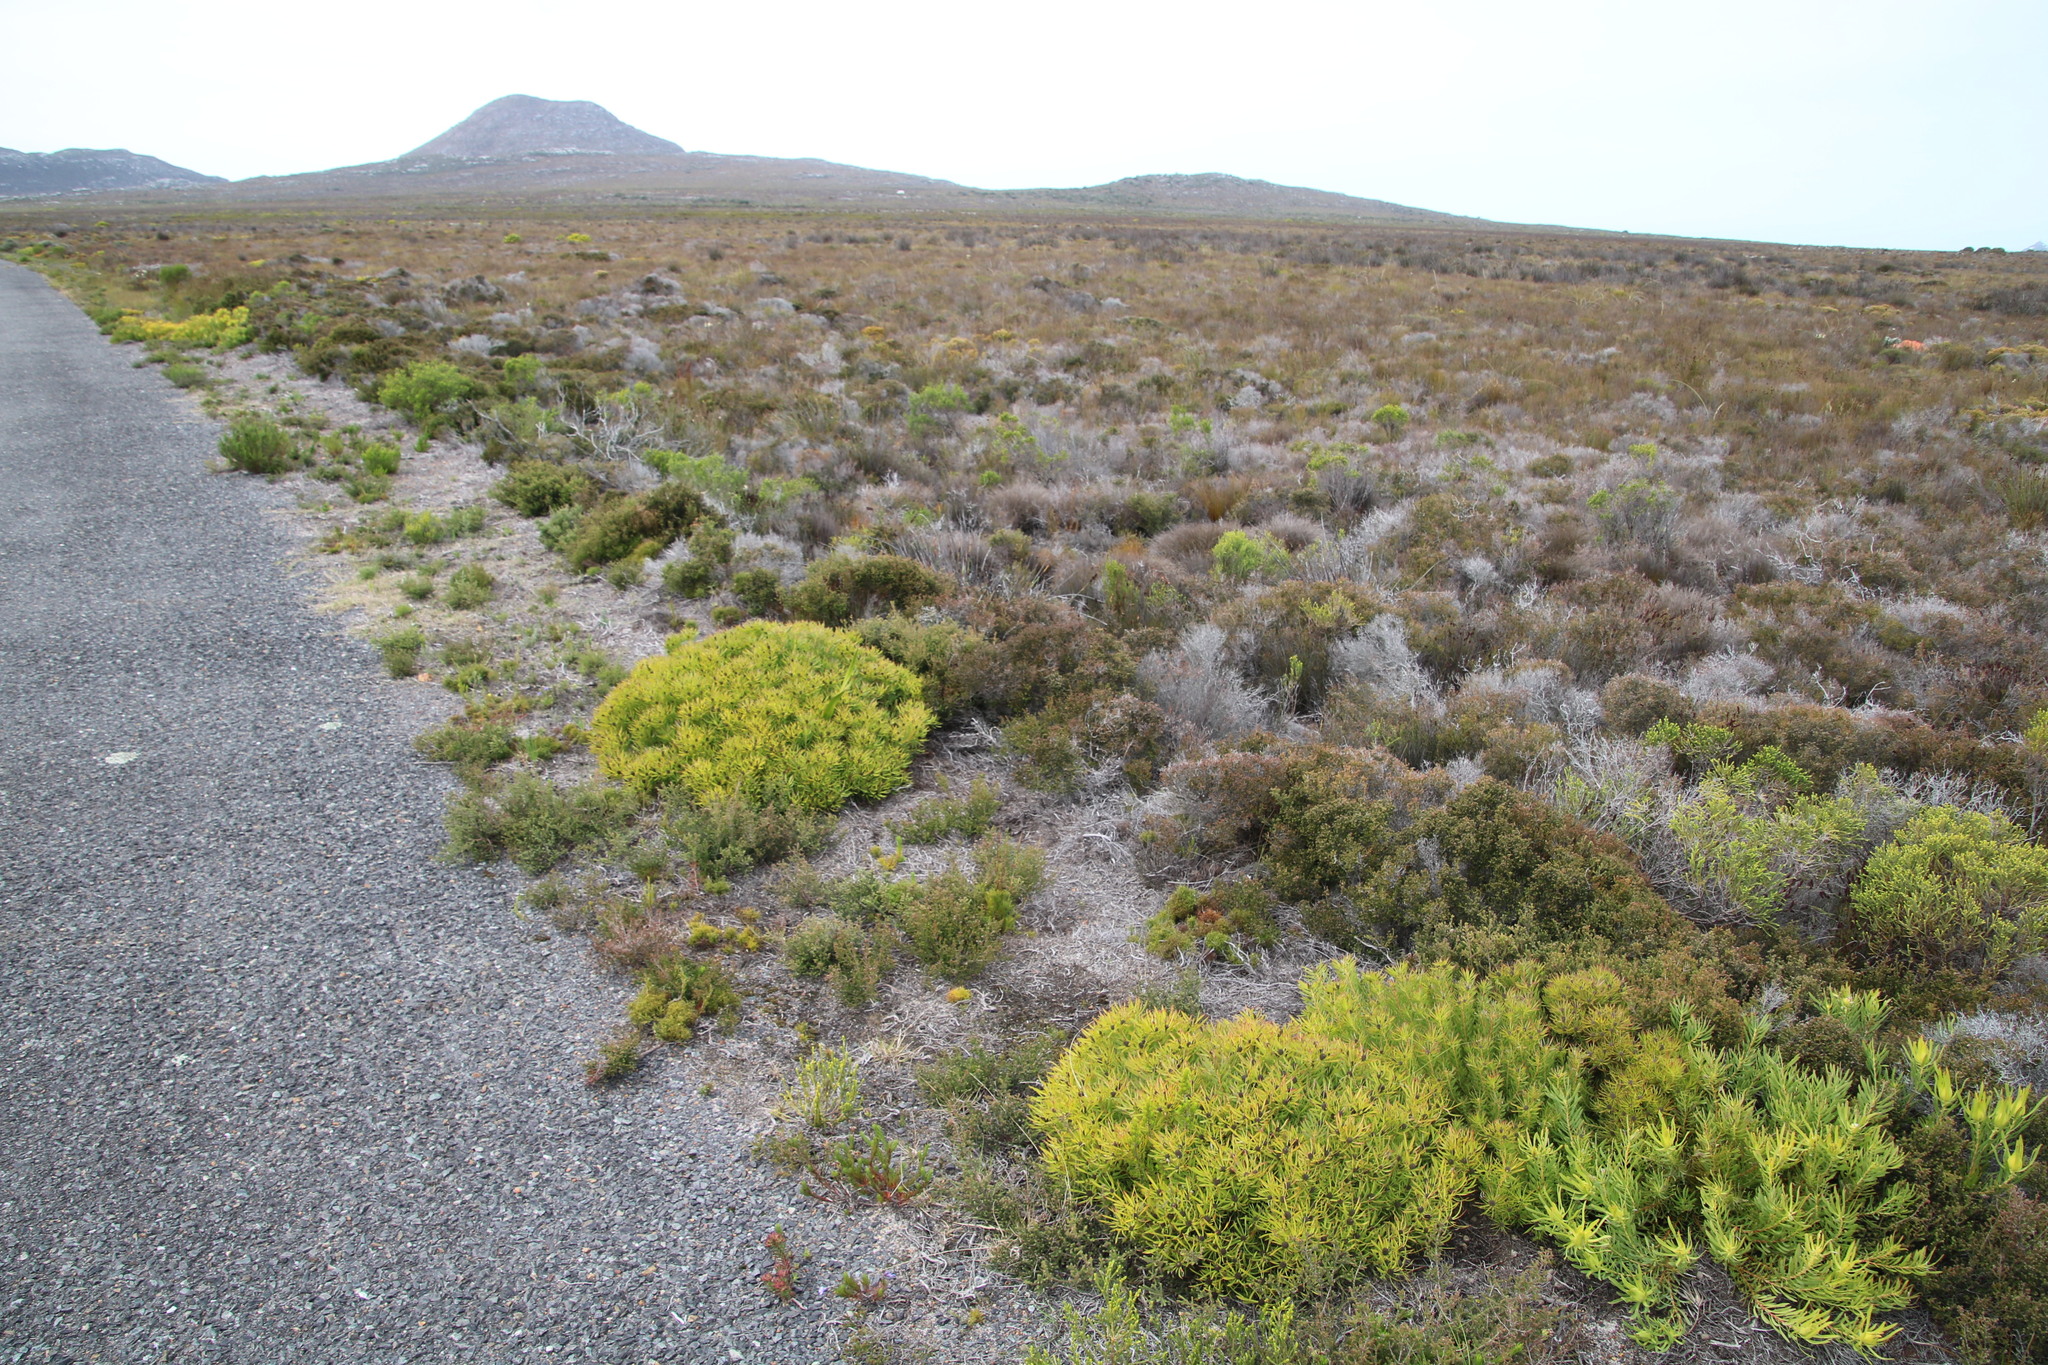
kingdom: Plantae
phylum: Tracheophyta
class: Magnoliopsida
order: Proteales
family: Proteaceae
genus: Leucadendron
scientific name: Leucadendron salignum
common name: Common sunshine conebush
